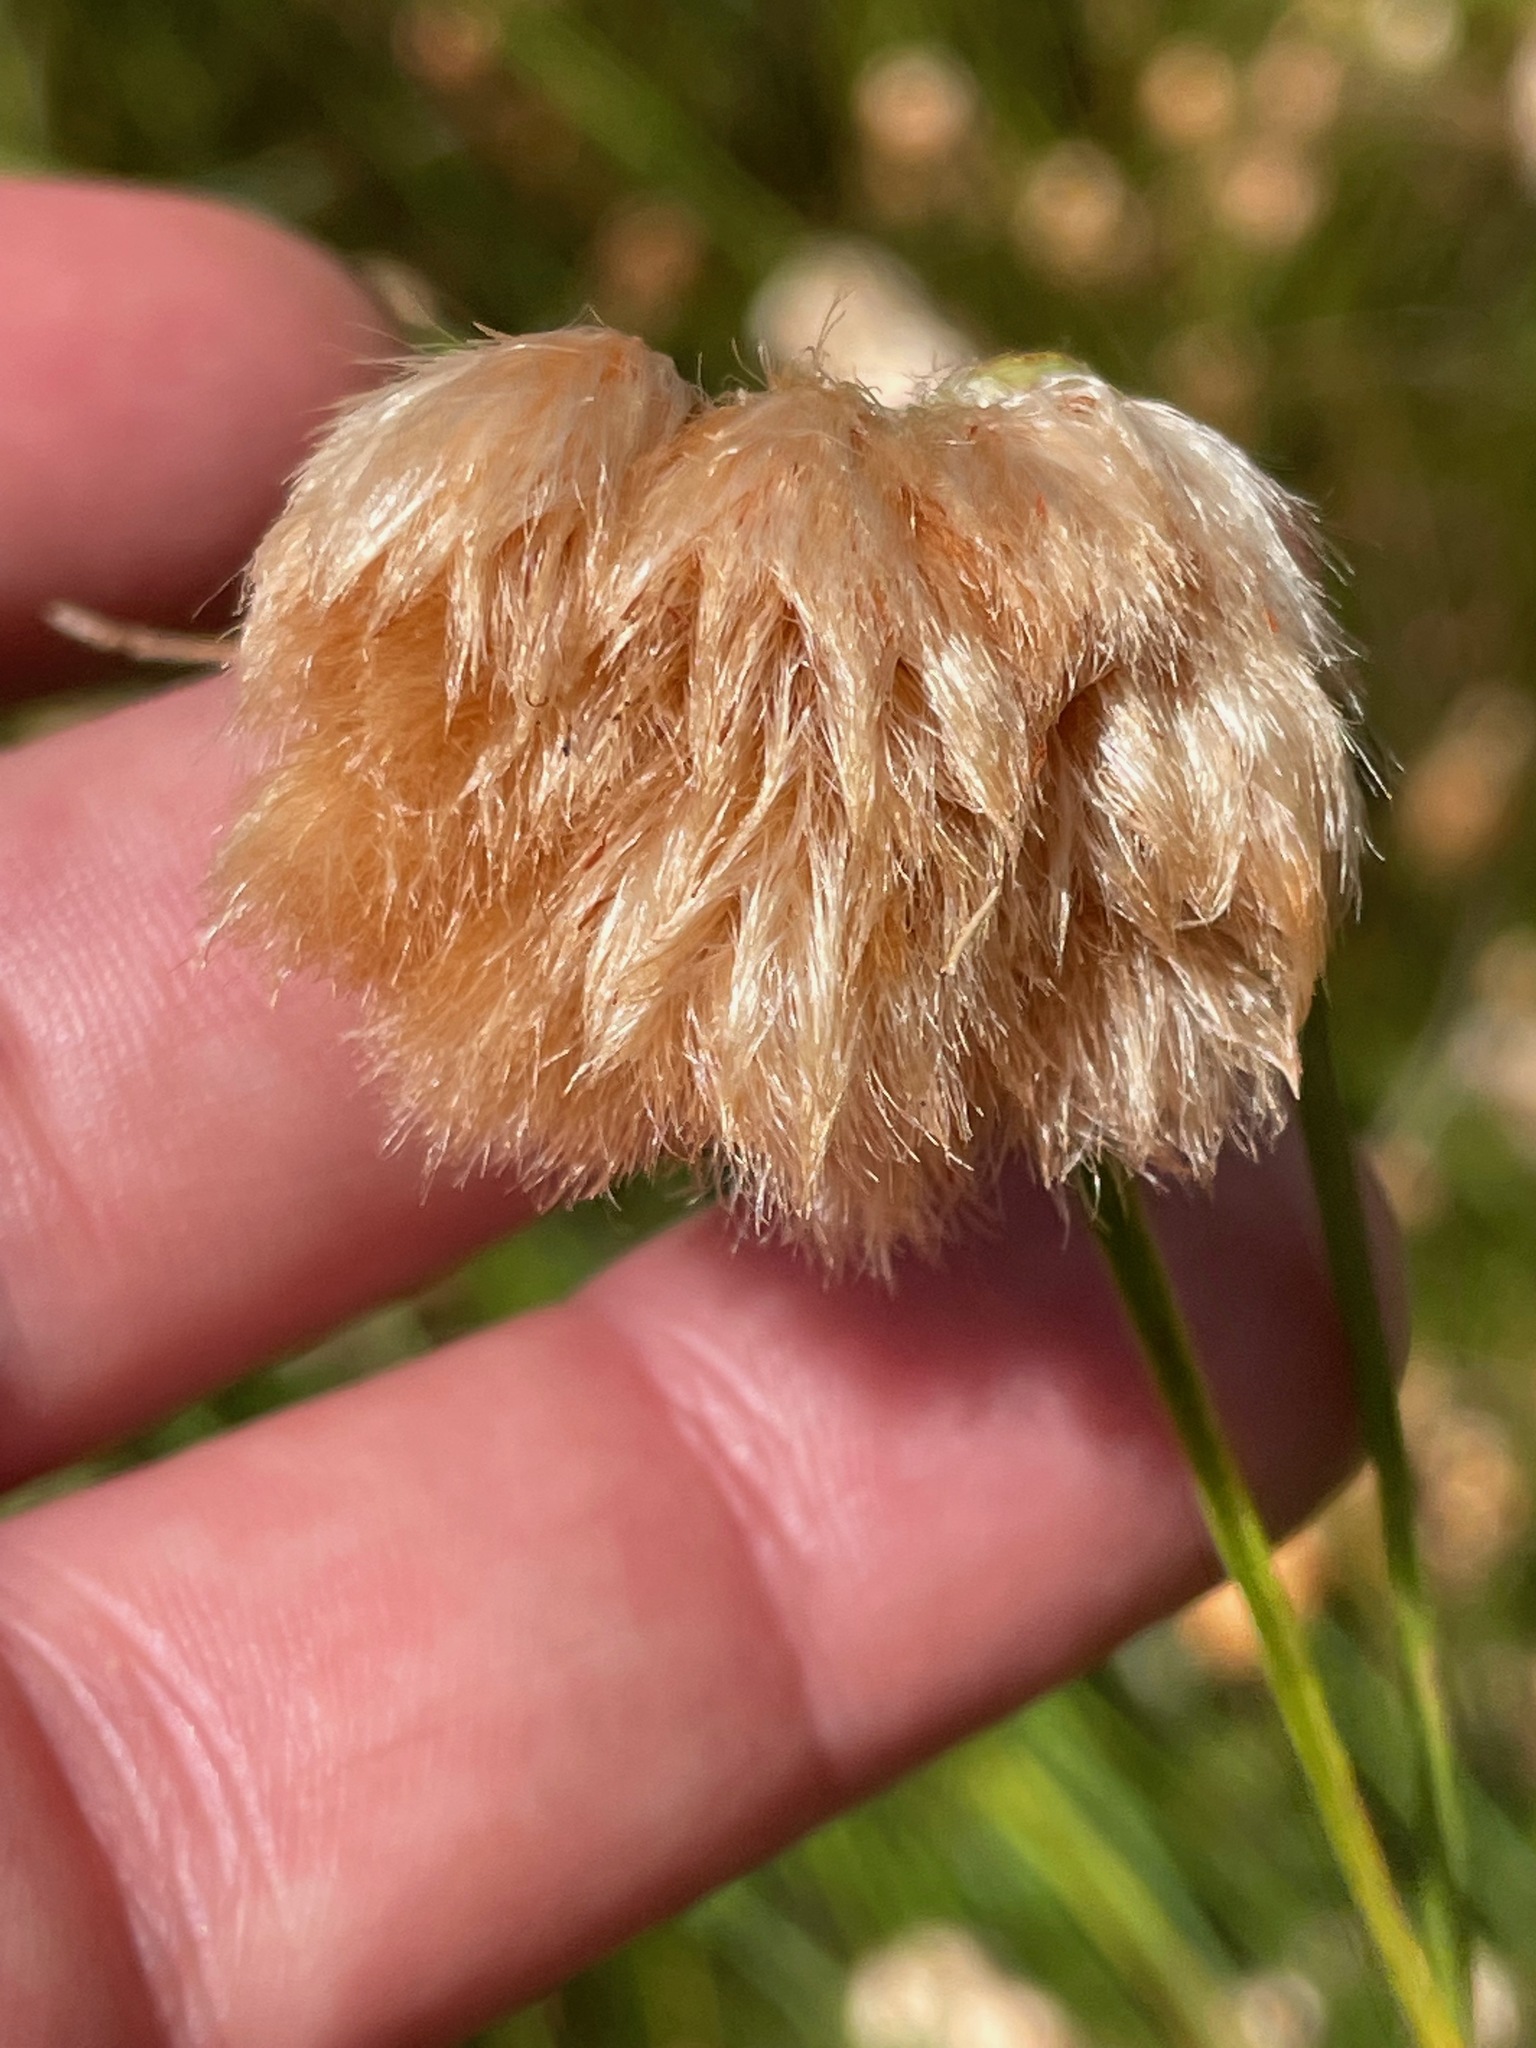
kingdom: Plantae
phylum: Tracheophyta
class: Liliopsida
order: Poales
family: Cyperaceae
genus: Eriophorum
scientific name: Eriophorum virginicum
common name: Tawny cottongrass
